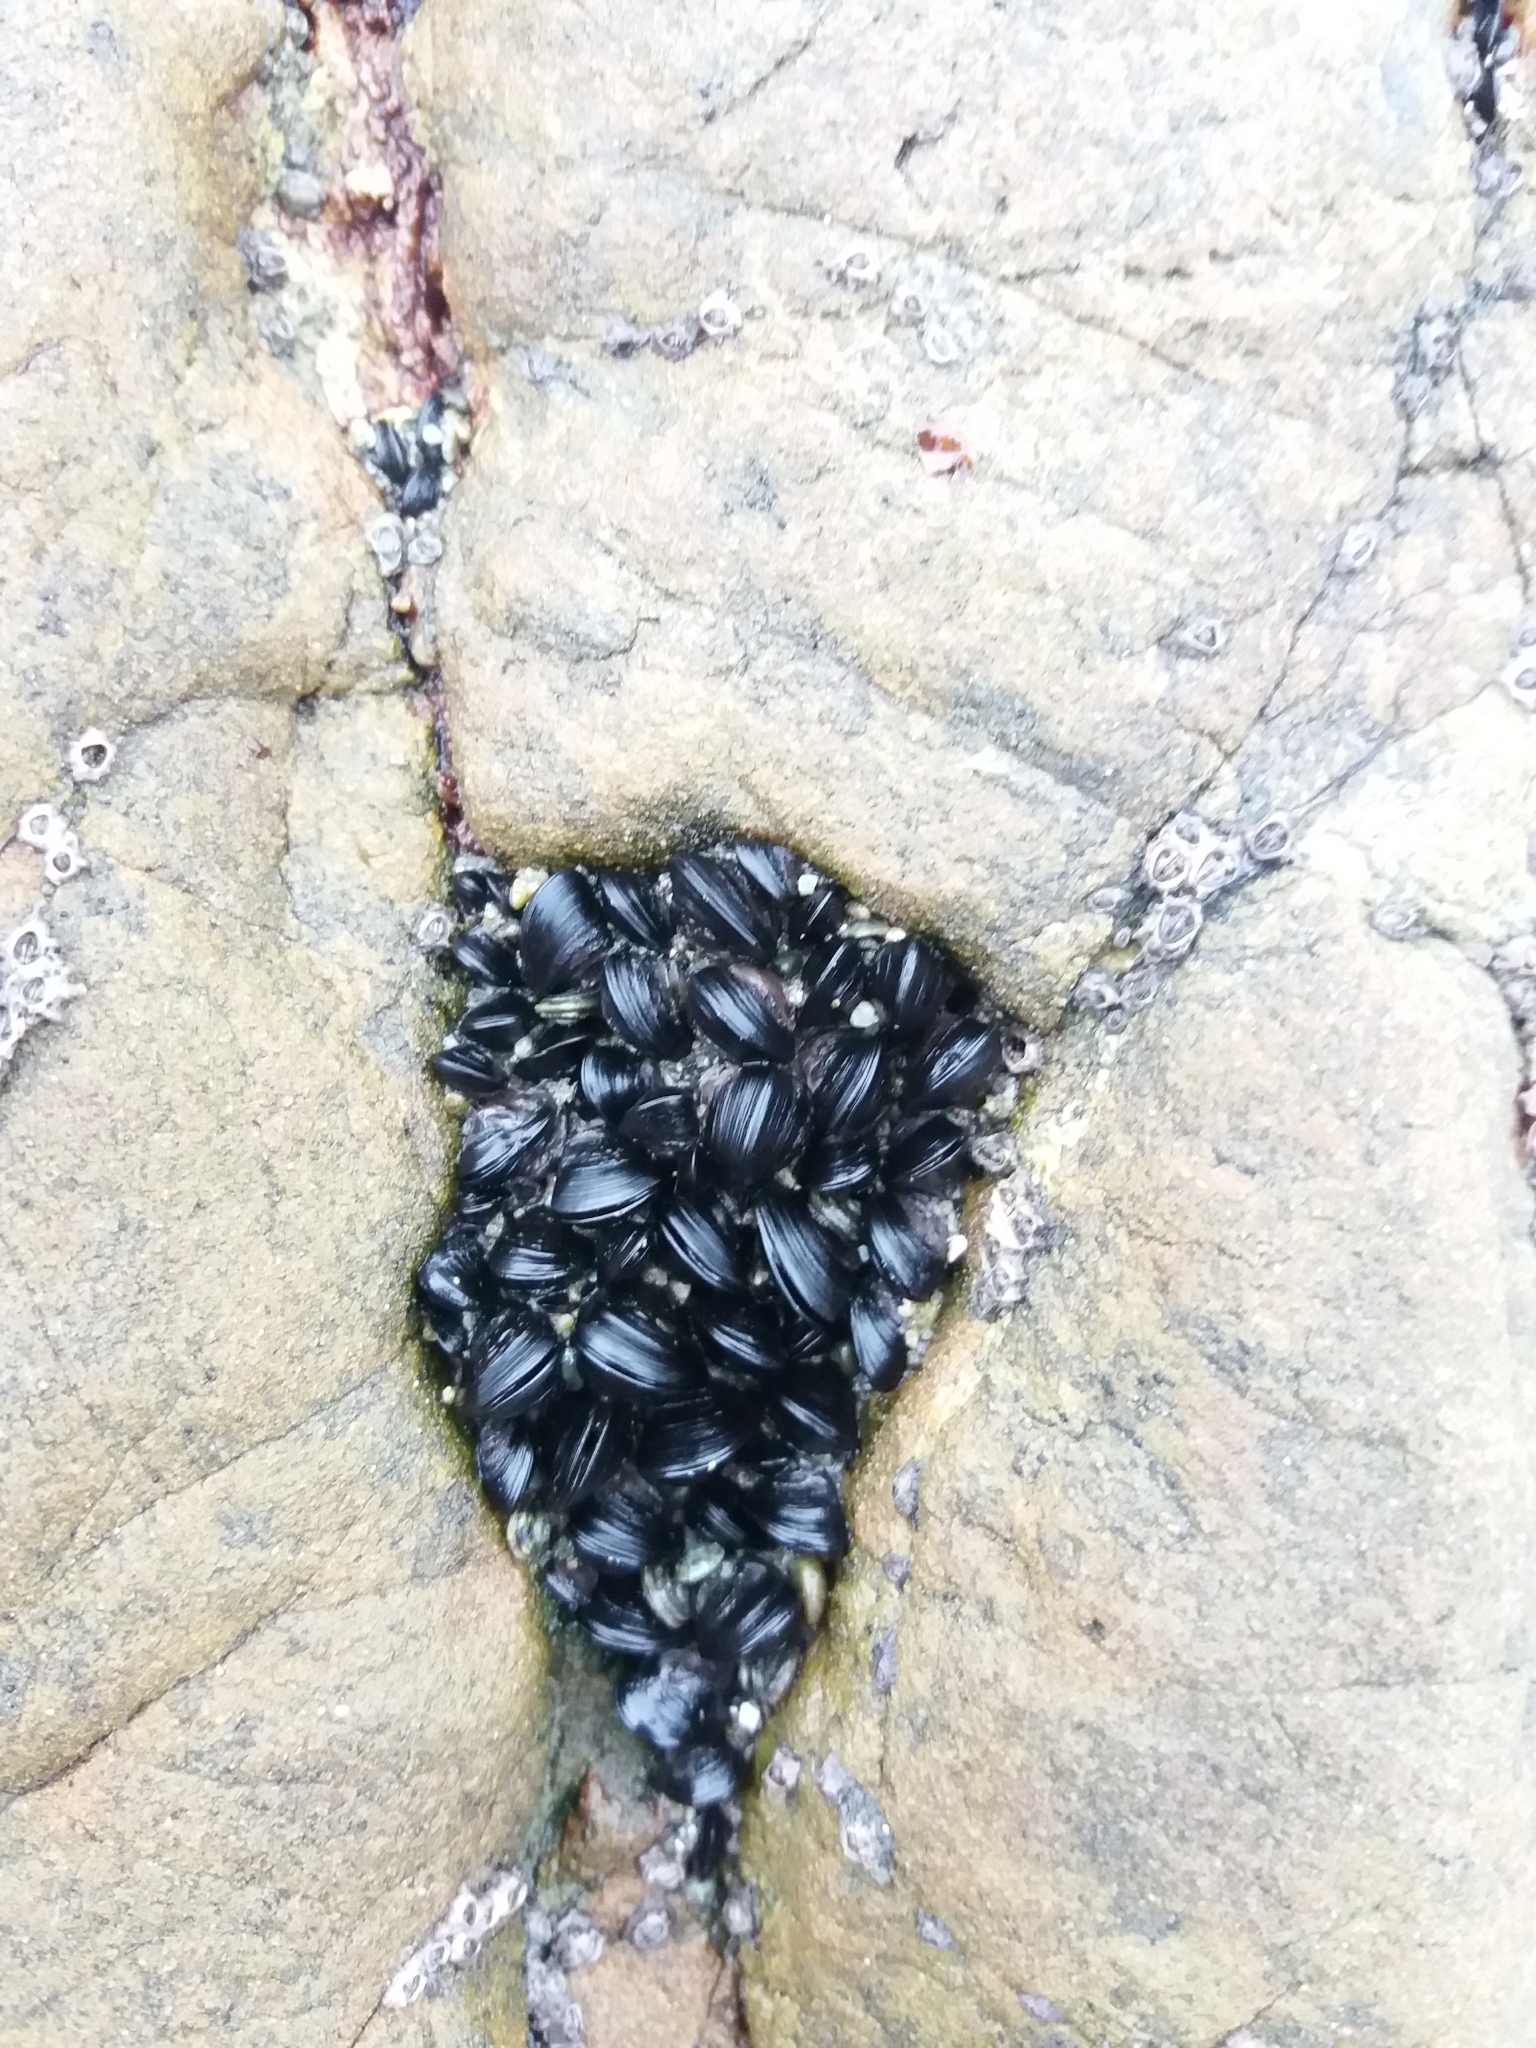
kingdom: Animalia
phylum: Mollusca
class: Bivalvia
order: Mytilida
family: Mytilidae
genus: Xenostrobus
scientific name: Xenostrobus neozelanicus
